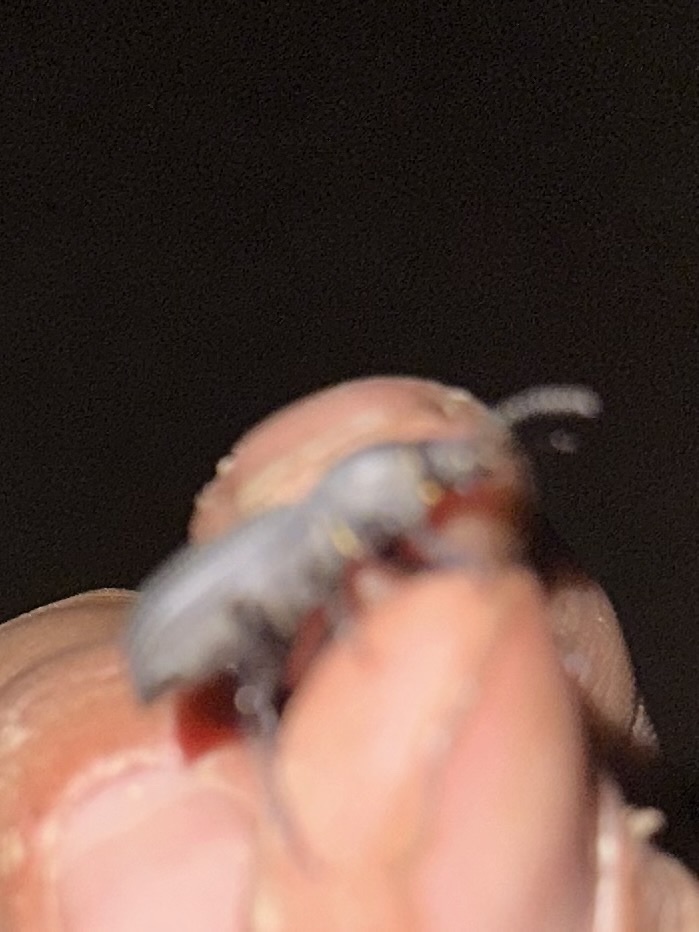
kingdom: Animalia
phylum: Arthropoda
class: Insecta
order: Coleoptera
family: Tenebrionidae
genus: Cerenopus
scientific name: Cerenopus concolor
